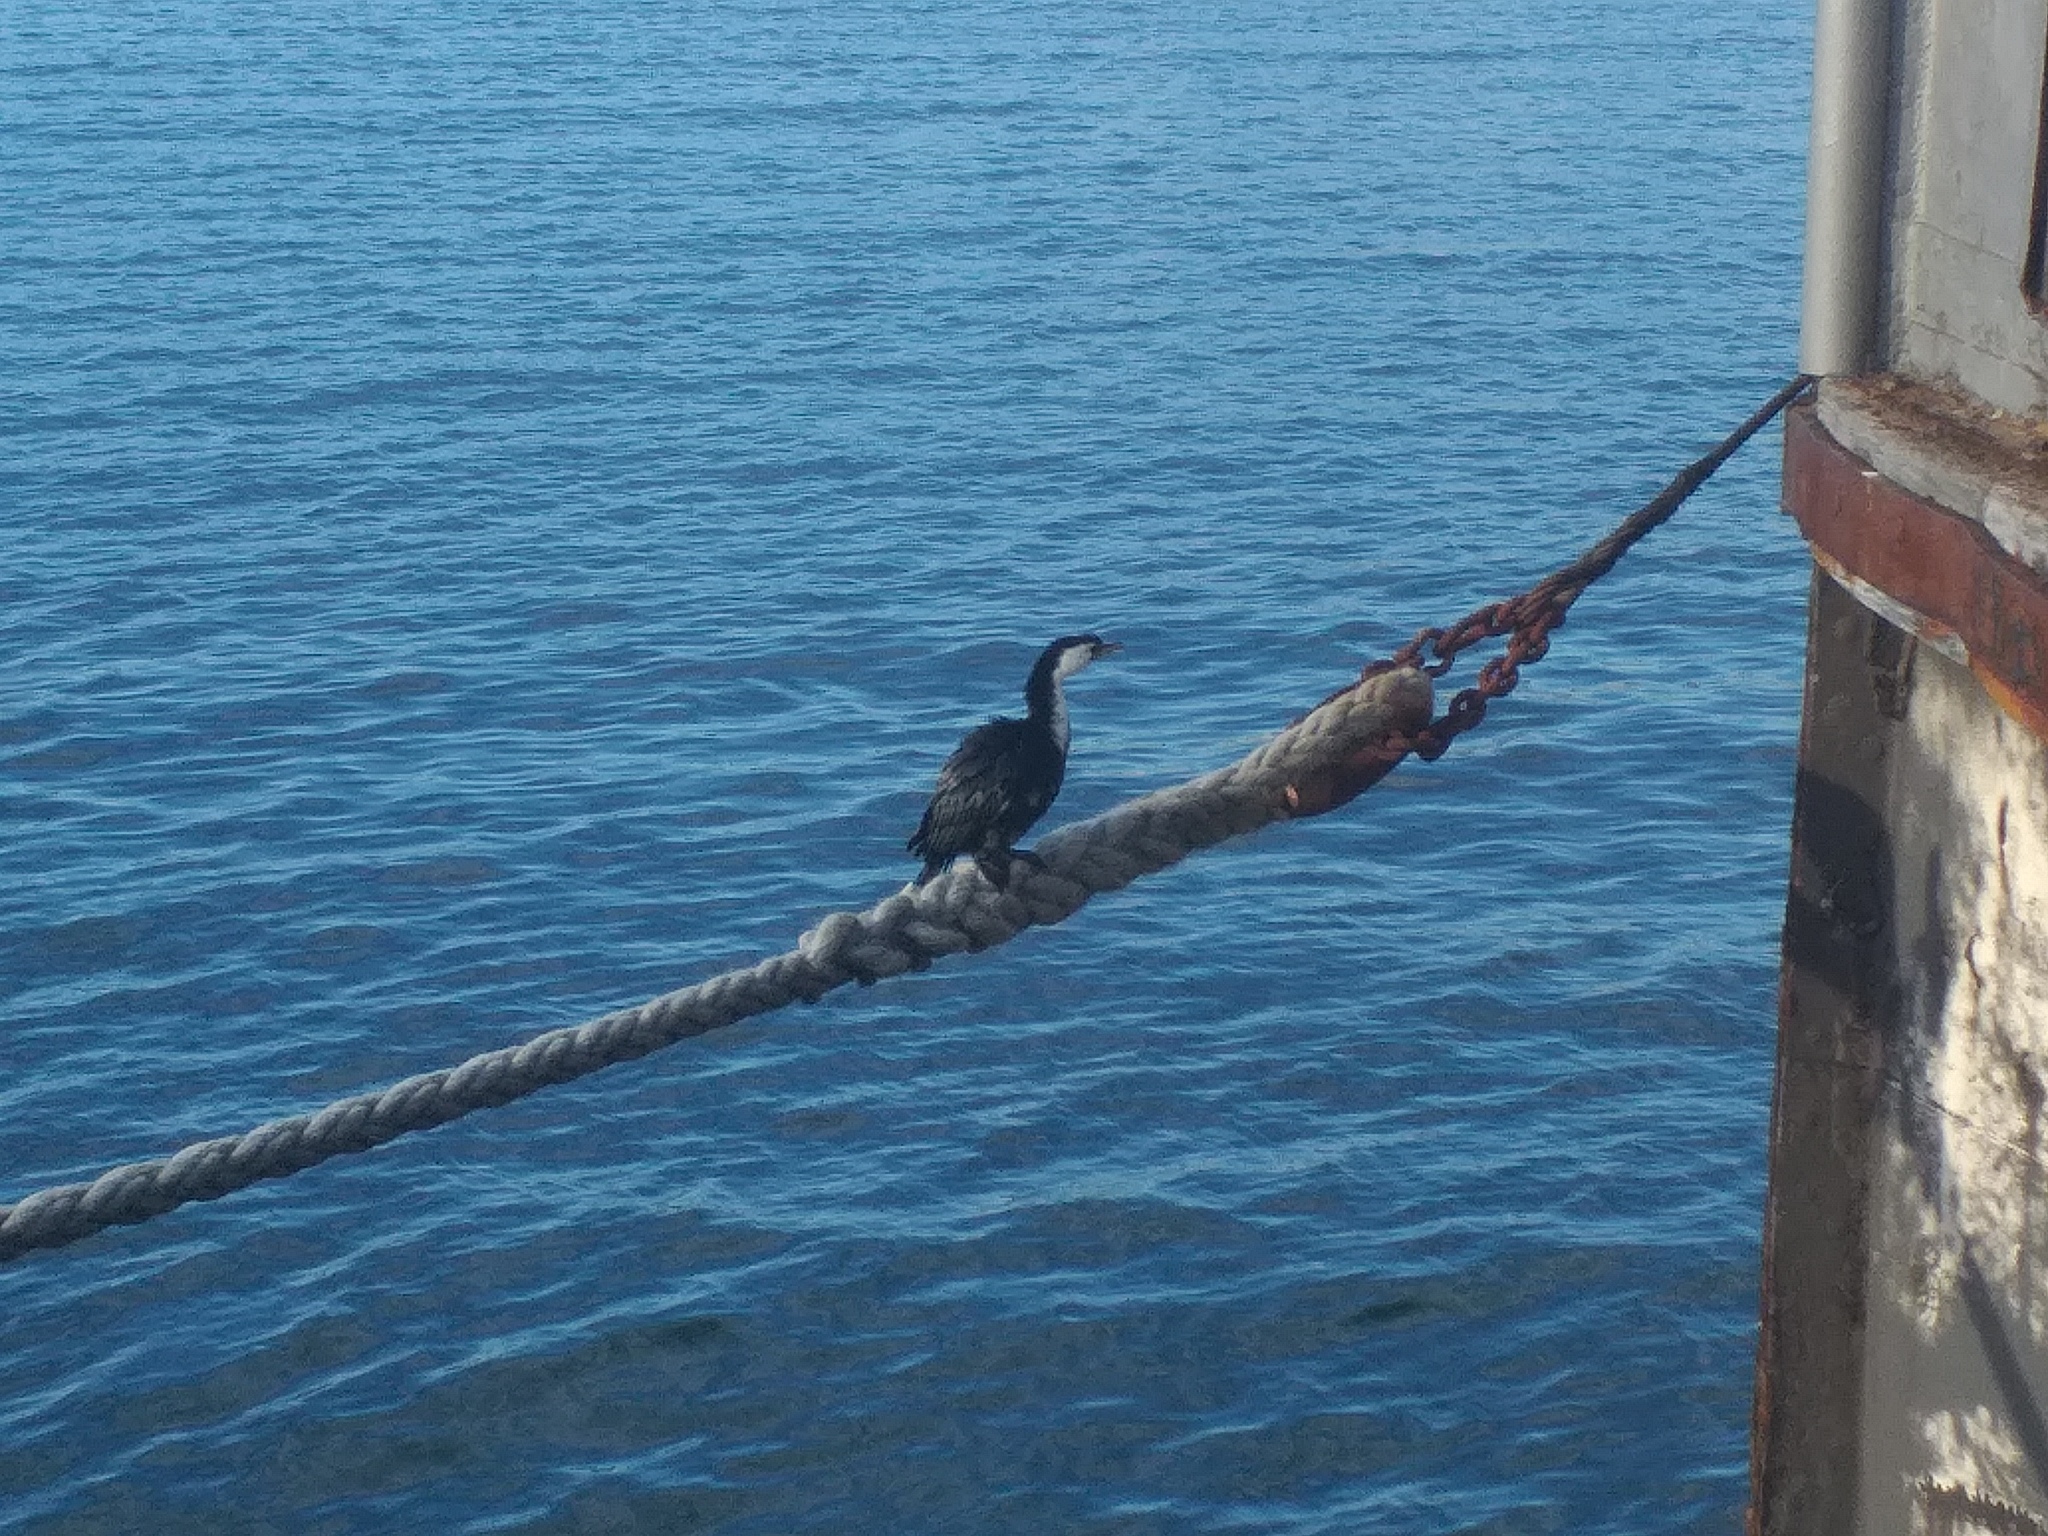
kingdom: Animalia
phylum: Chordata
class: Aves
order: Suliformes
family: Phalacrocoracidae
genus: Microcarbo
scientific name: Microcarbo melanoleucos
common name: Little pied cormorant
